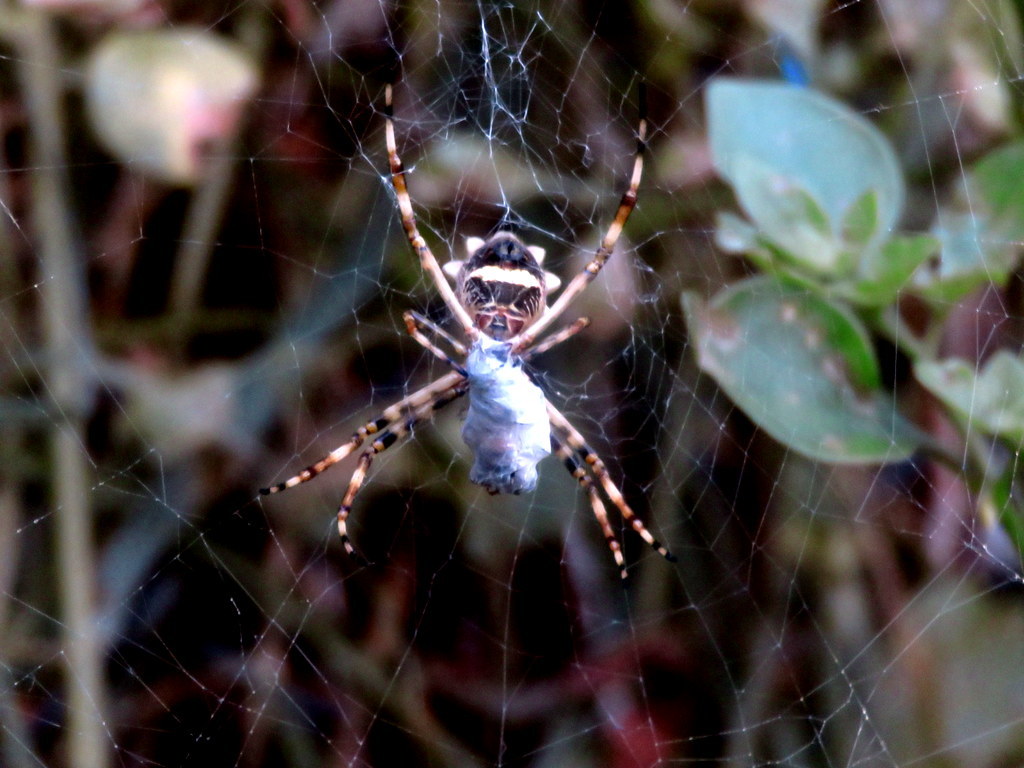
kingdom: Animalia
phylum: Arthropoda
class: Arachnida
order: Araneae
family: Araneidae
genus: Argiope
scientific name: Argiope argentata
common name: Orb weavers
